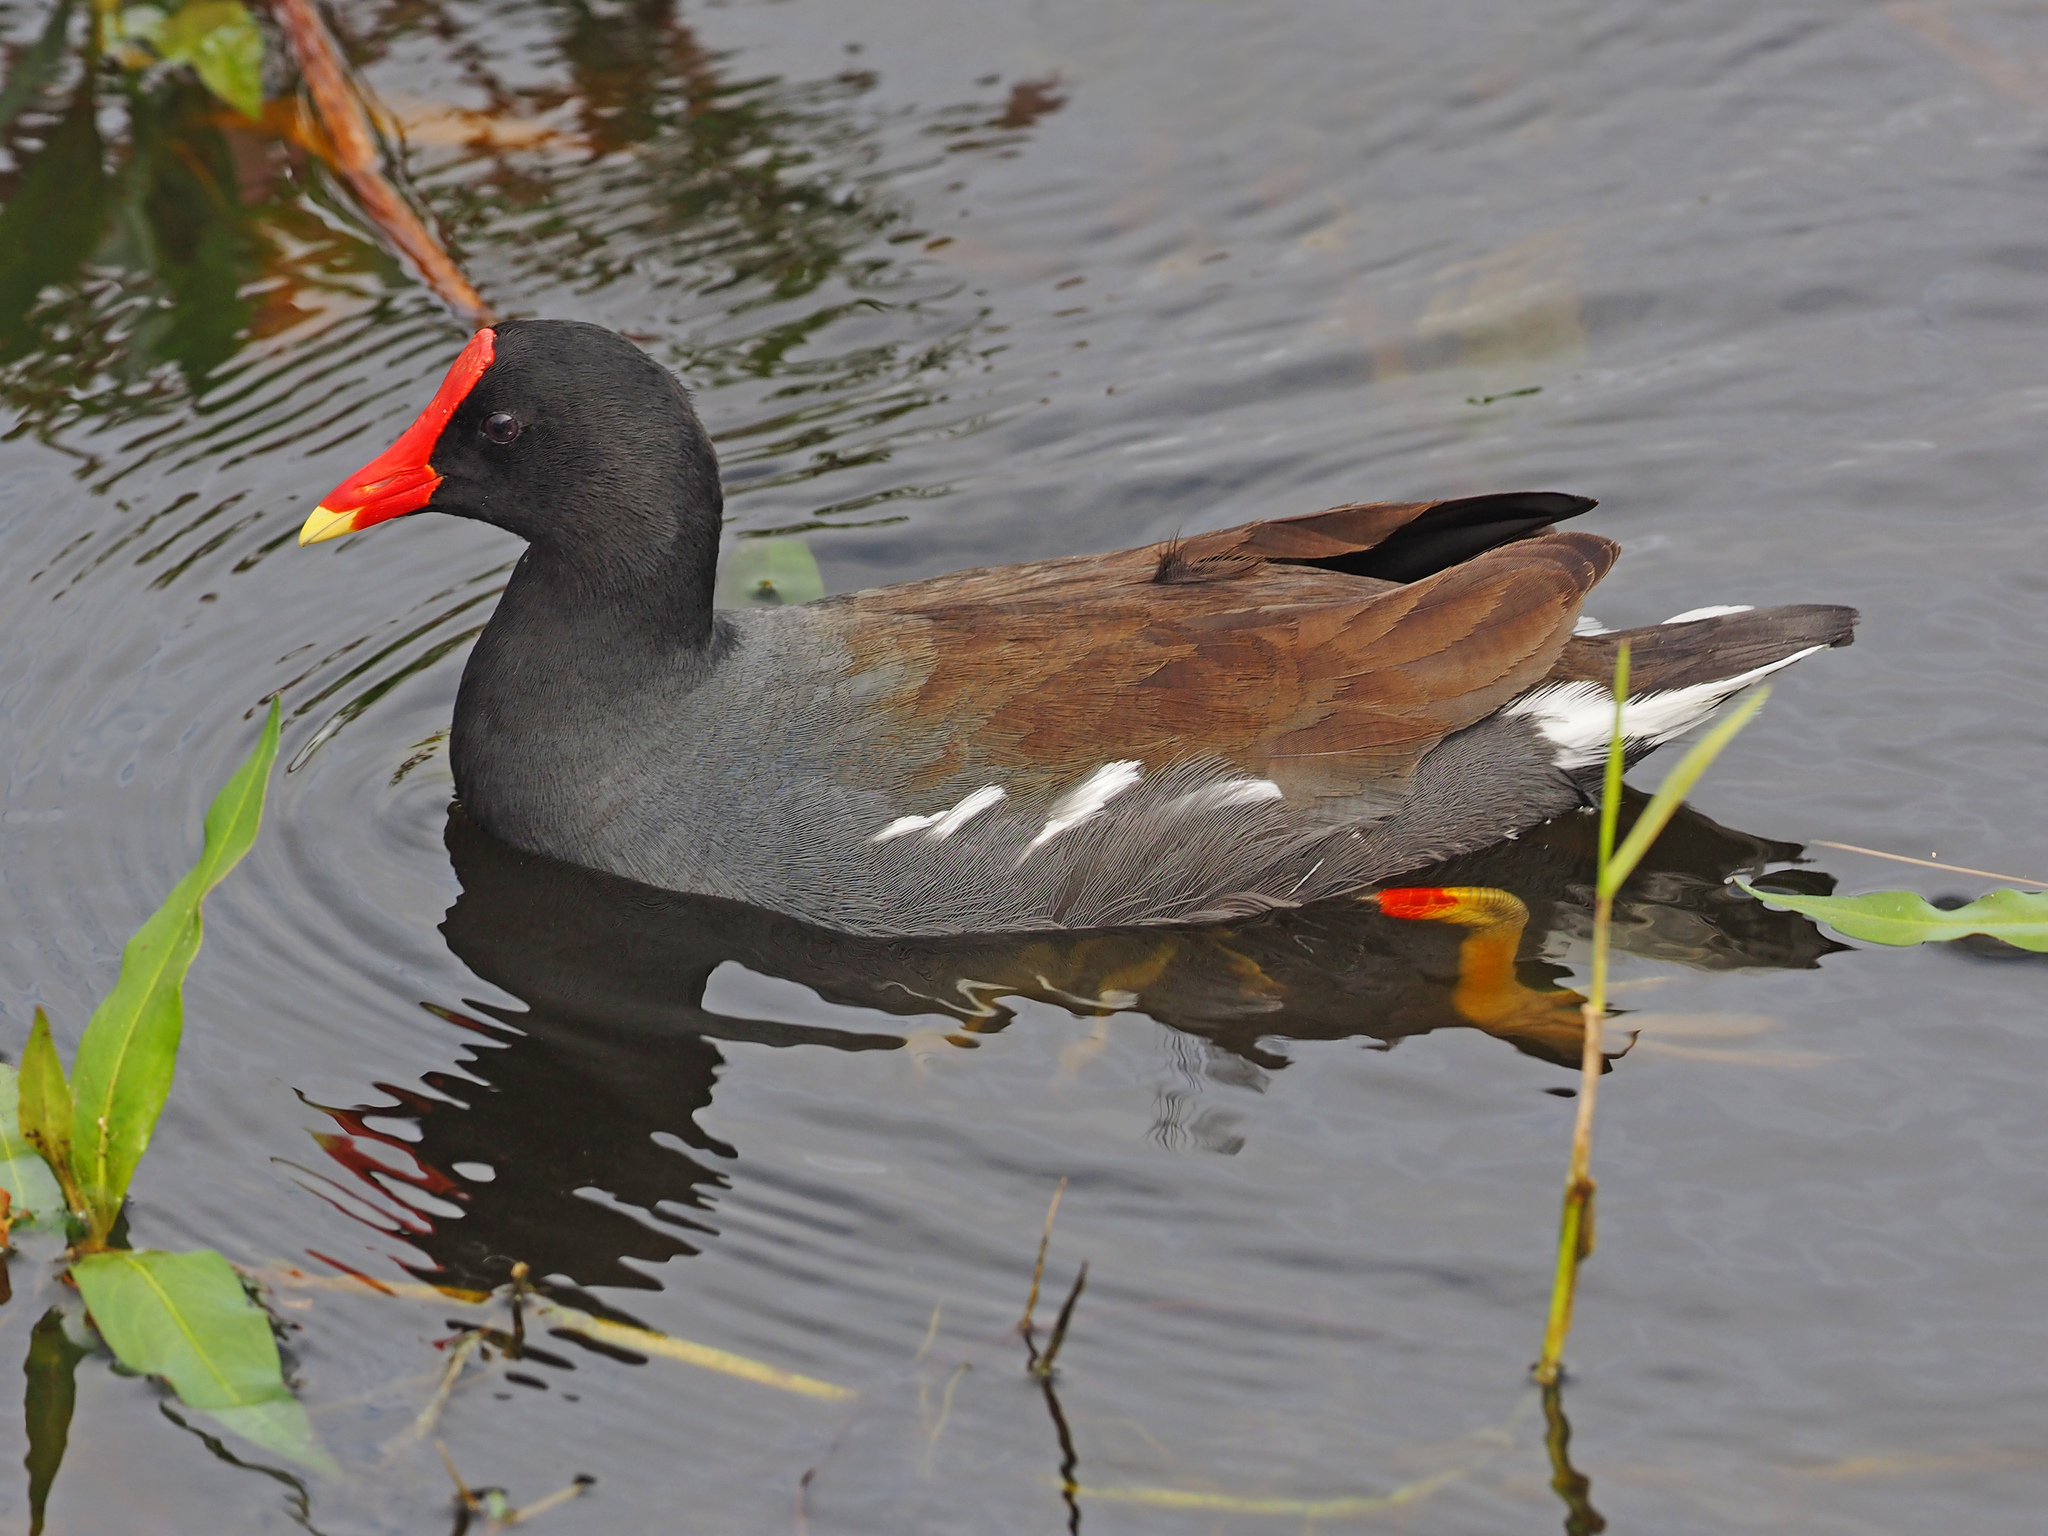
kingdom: Animalia
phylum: Chordata
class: Aves
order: Gruiformes
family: Rallidae
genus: Gallinula
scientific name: Gallinula chloropus
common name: Common moorhen
